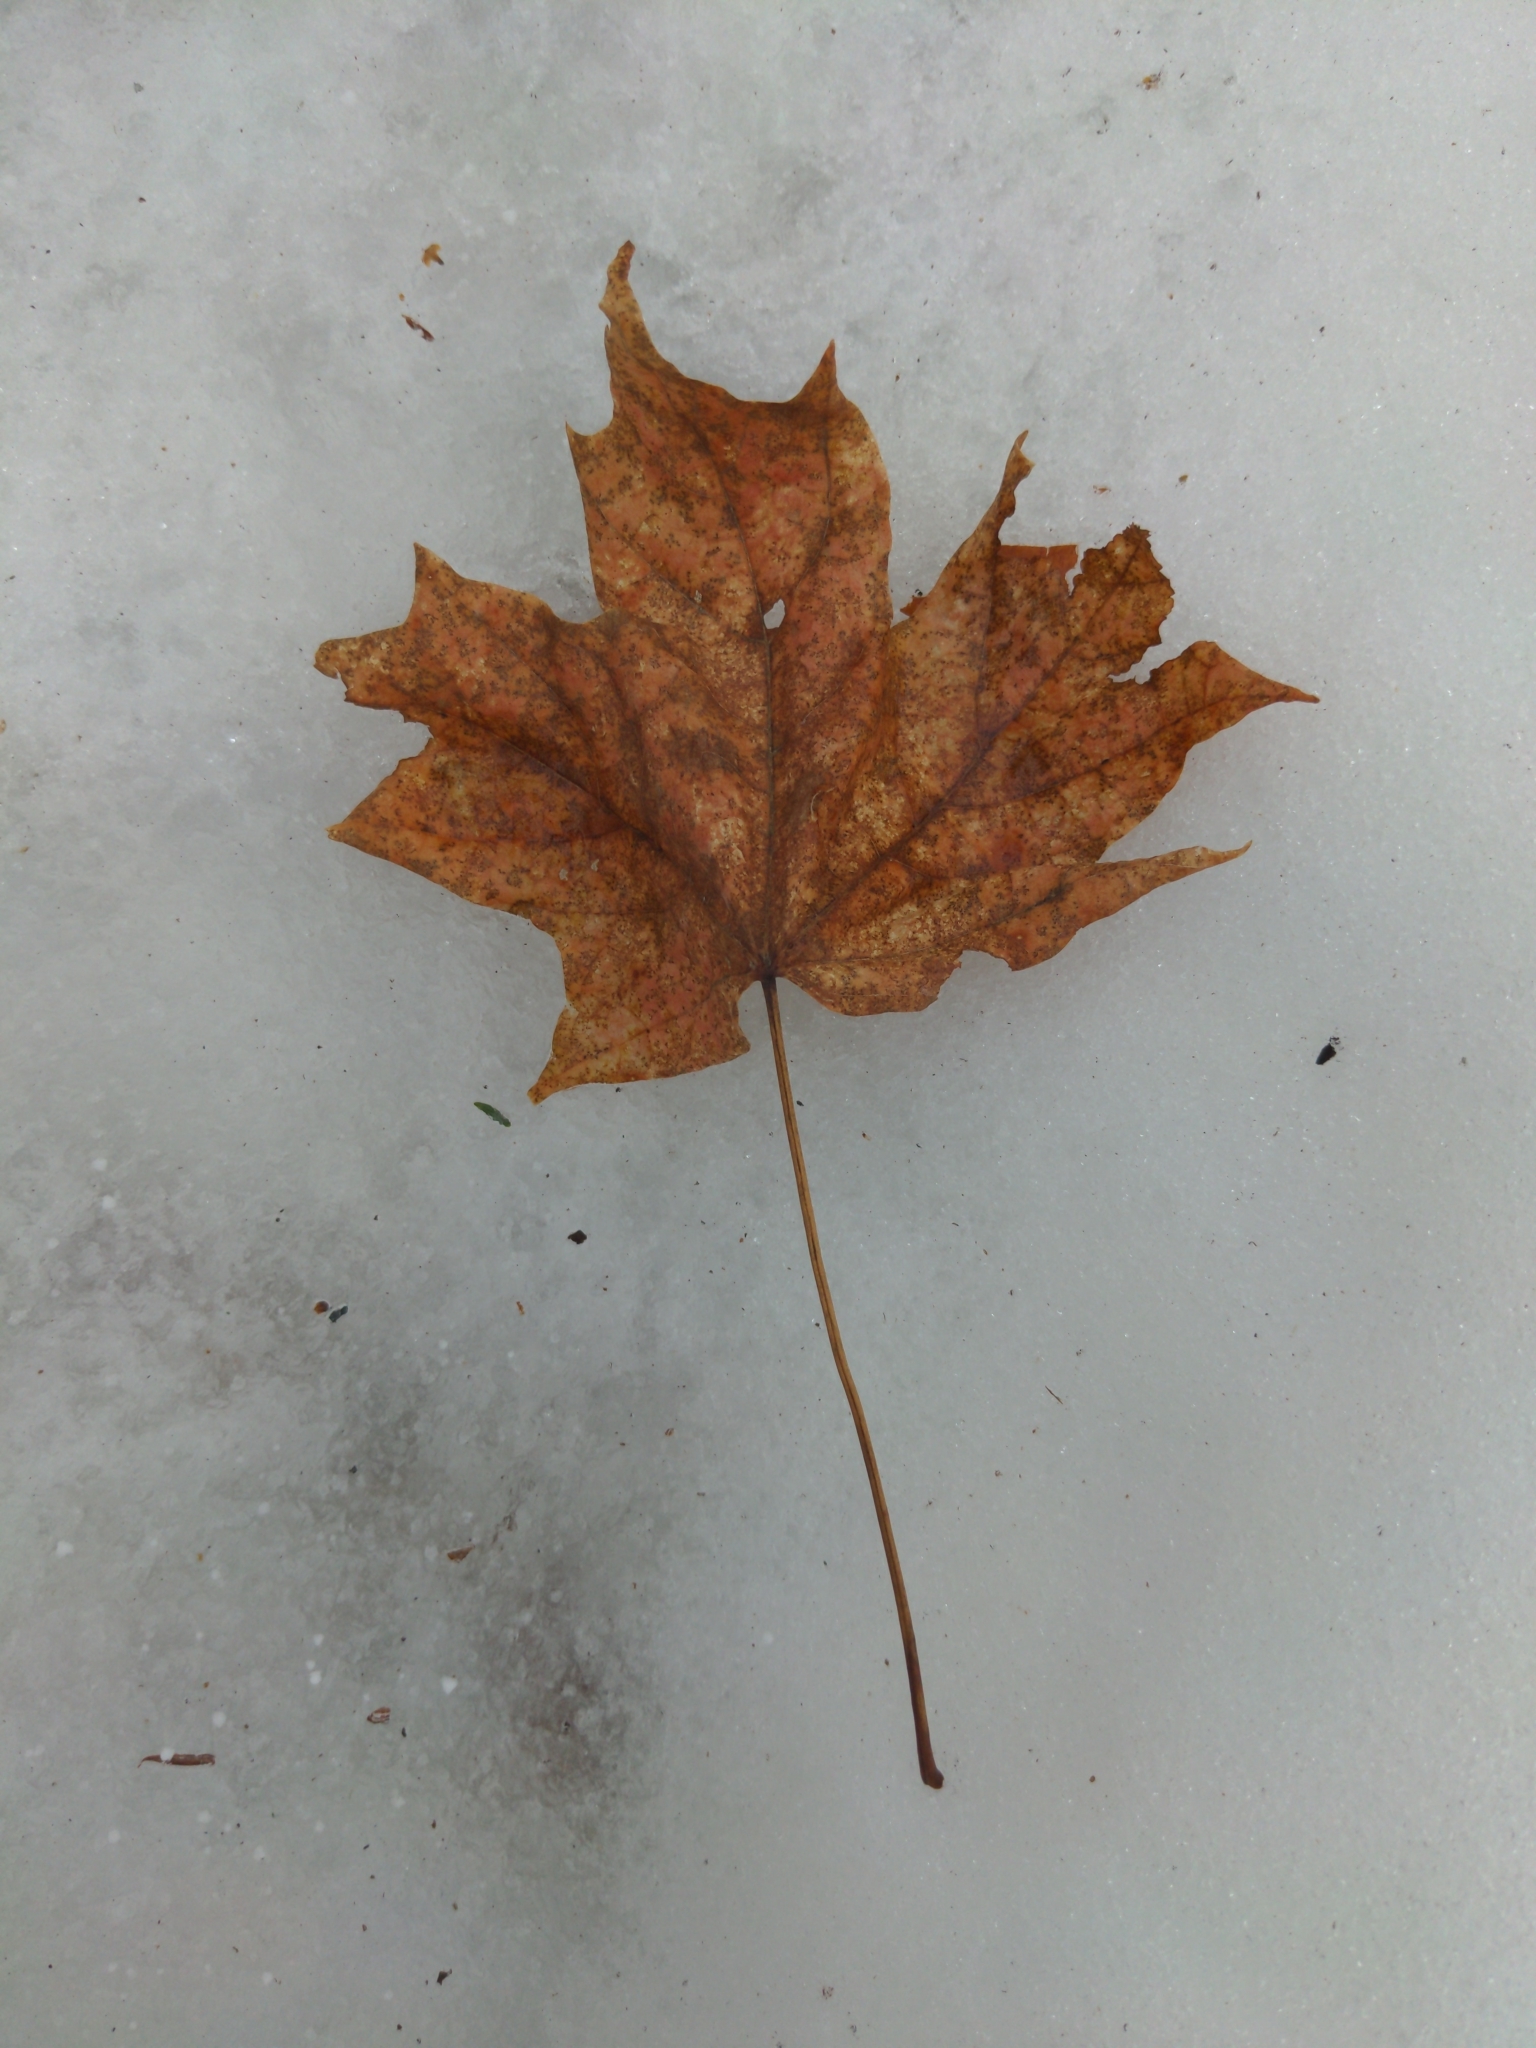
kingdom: Plantae
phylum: Tracheophyta
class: Magnoliopsida
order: Sapindales
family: Sapindaceae
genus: Acer
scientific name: Acer saccharum
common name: Sugar maple
